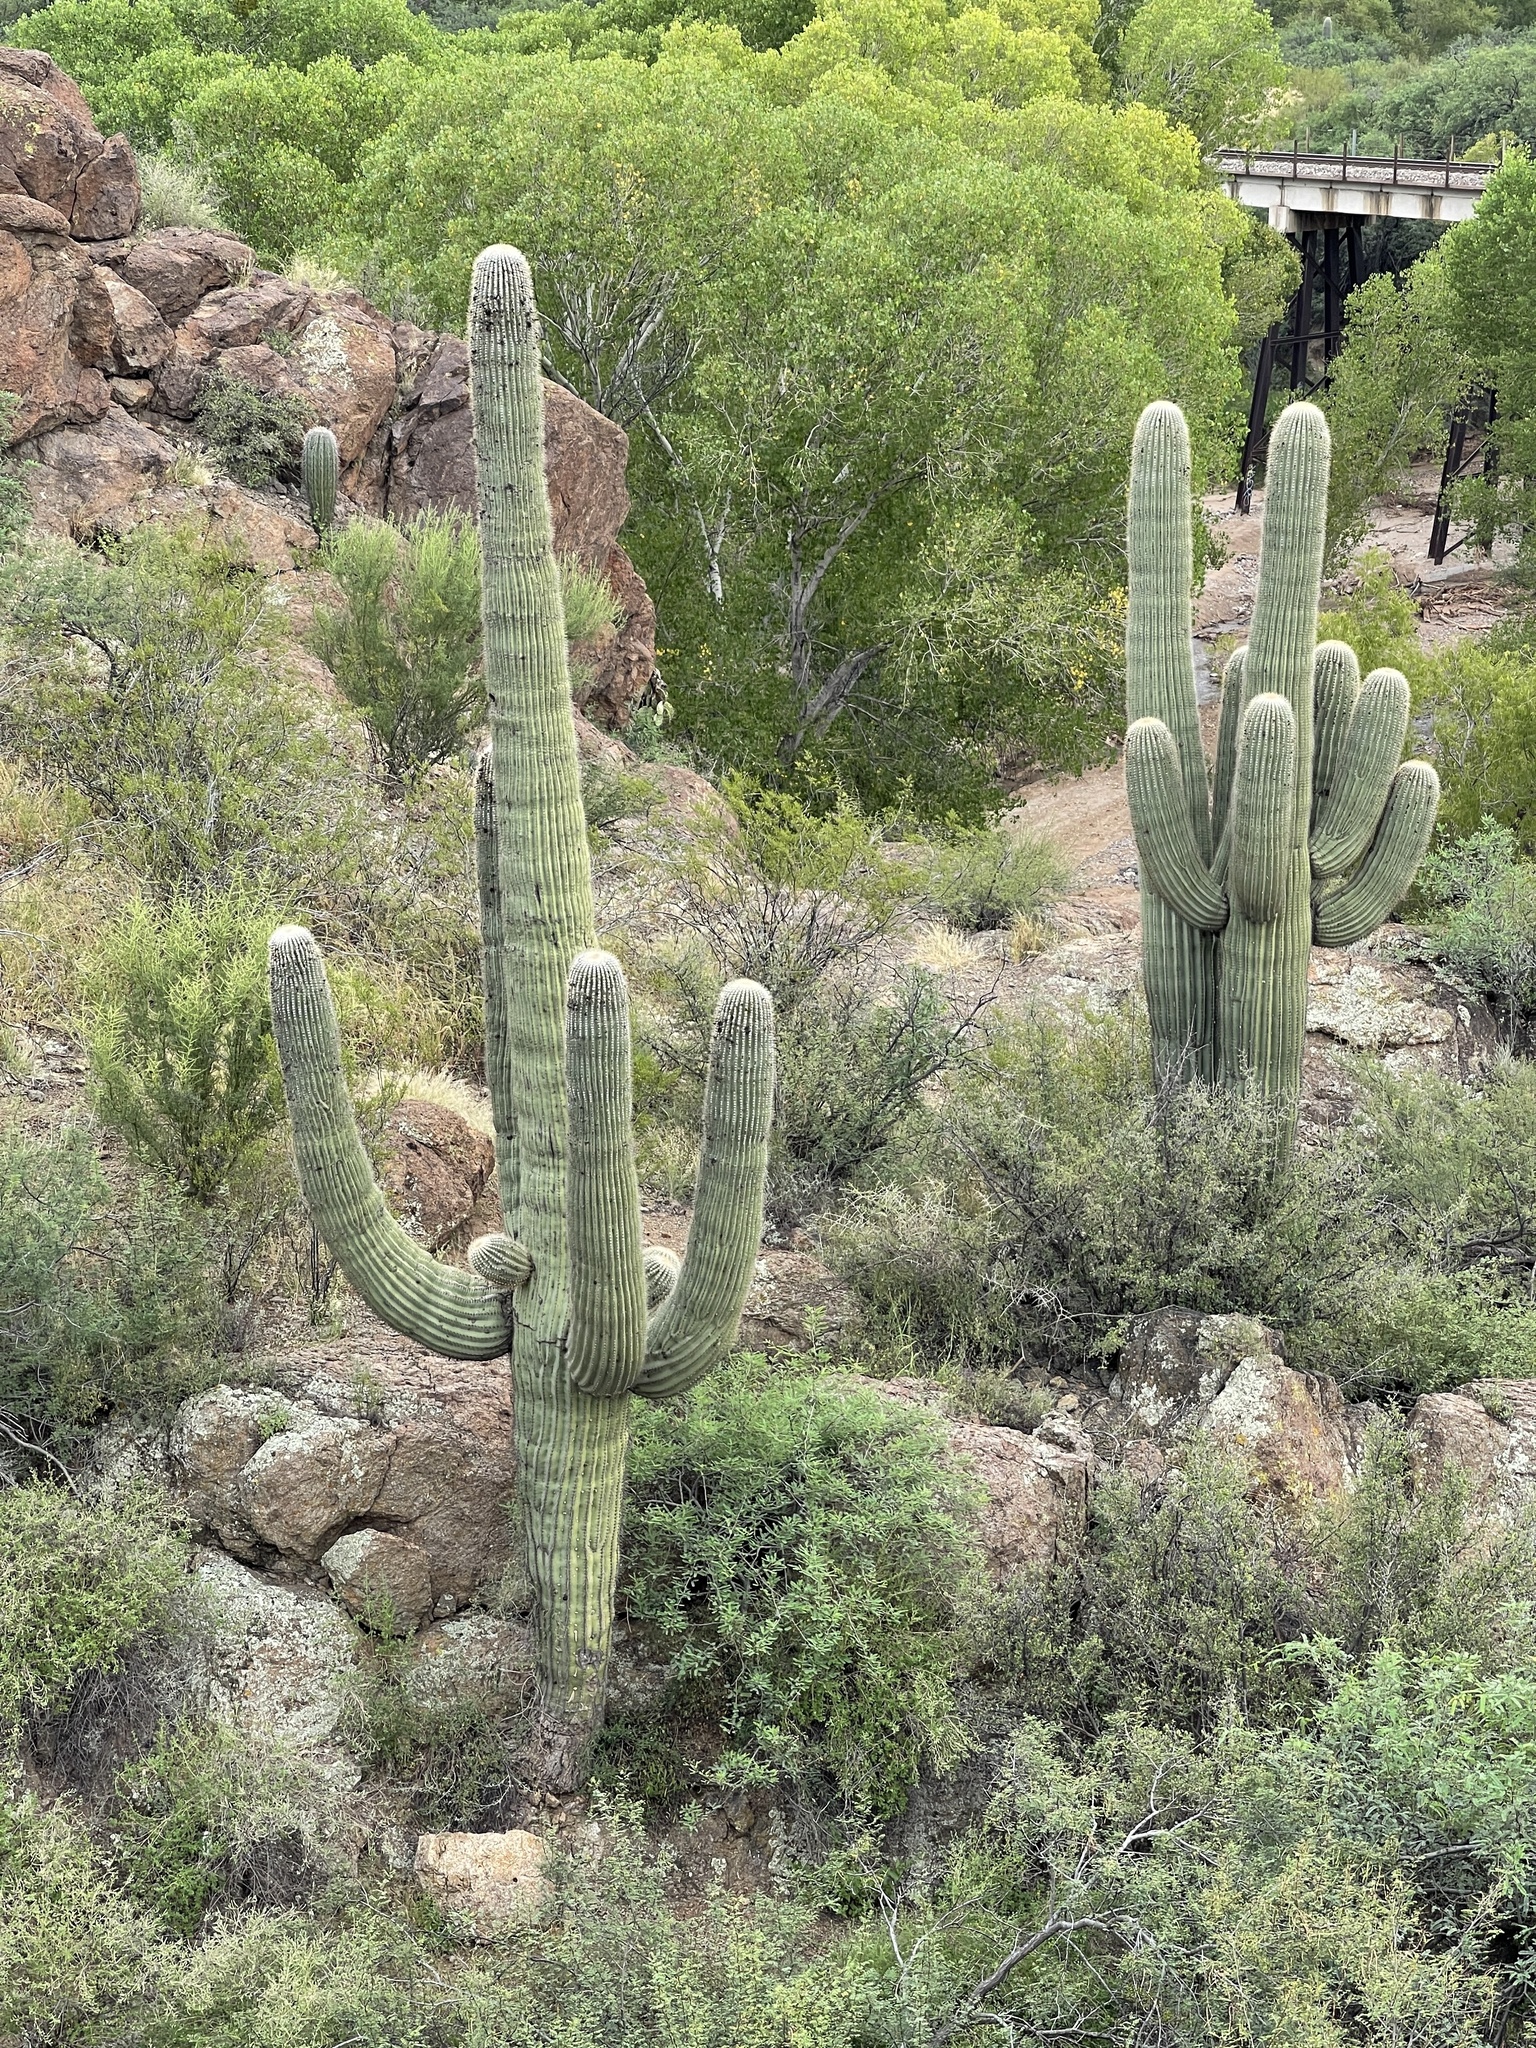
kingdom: Plantae
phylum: Tracheophyta
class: Magnoliopsida
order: Caryophyllales
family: Cactaceae
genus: Carnegiea
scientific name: Carnegiea gigantea
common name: Saguaro
